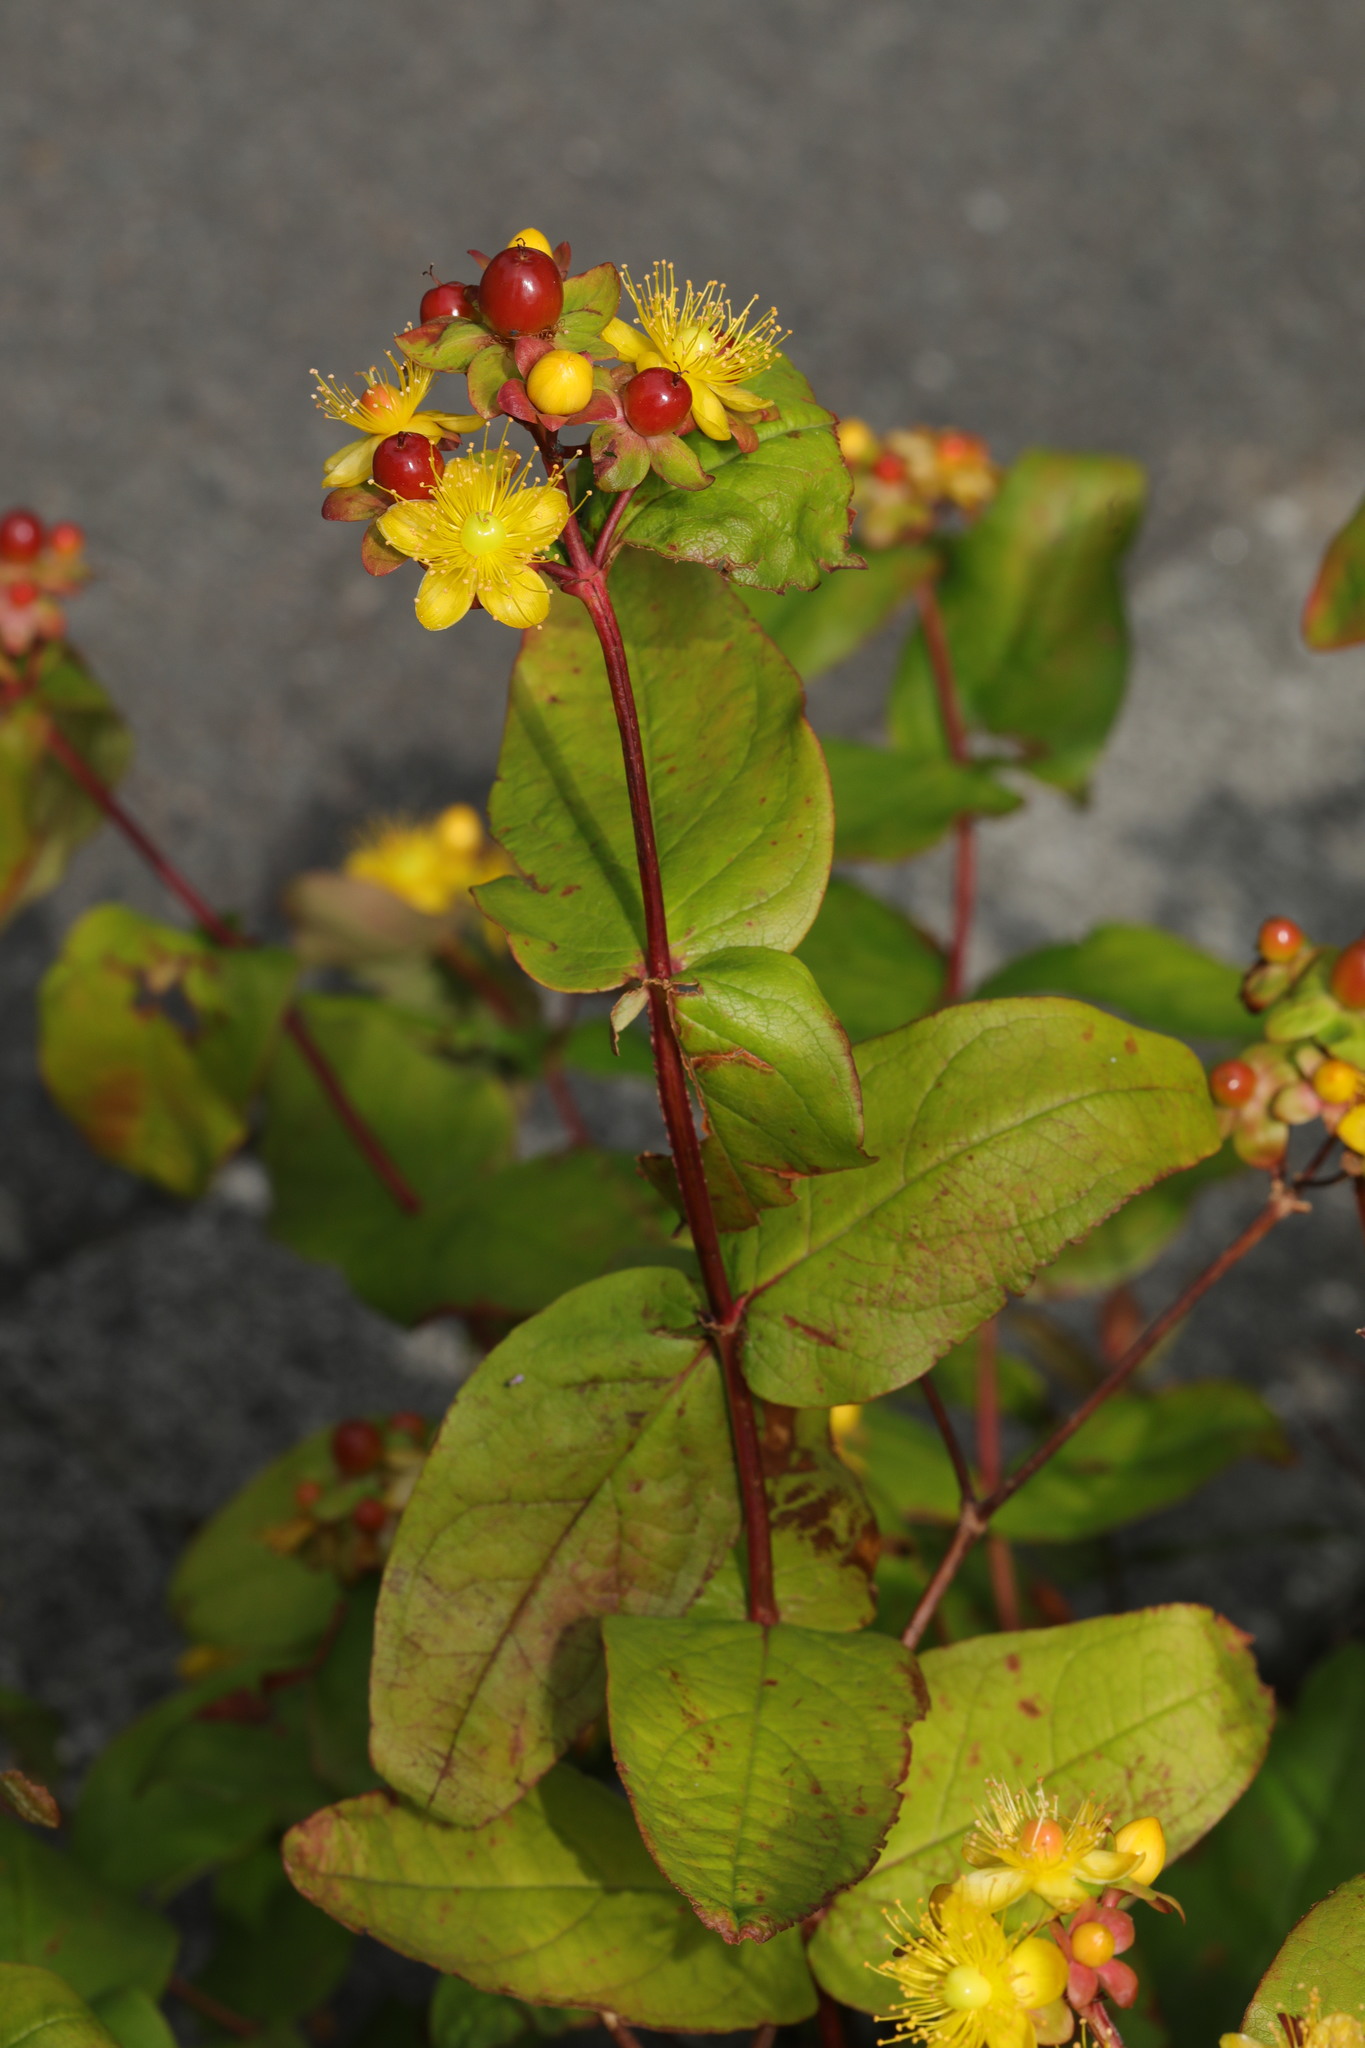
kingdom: Plantae
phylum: Tracheophyta
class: Magnoliopsida
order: Malpighiales
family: Hypericaceae
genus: Hypericum
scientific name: Hypericum androsaemum
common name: Sweet-amber
